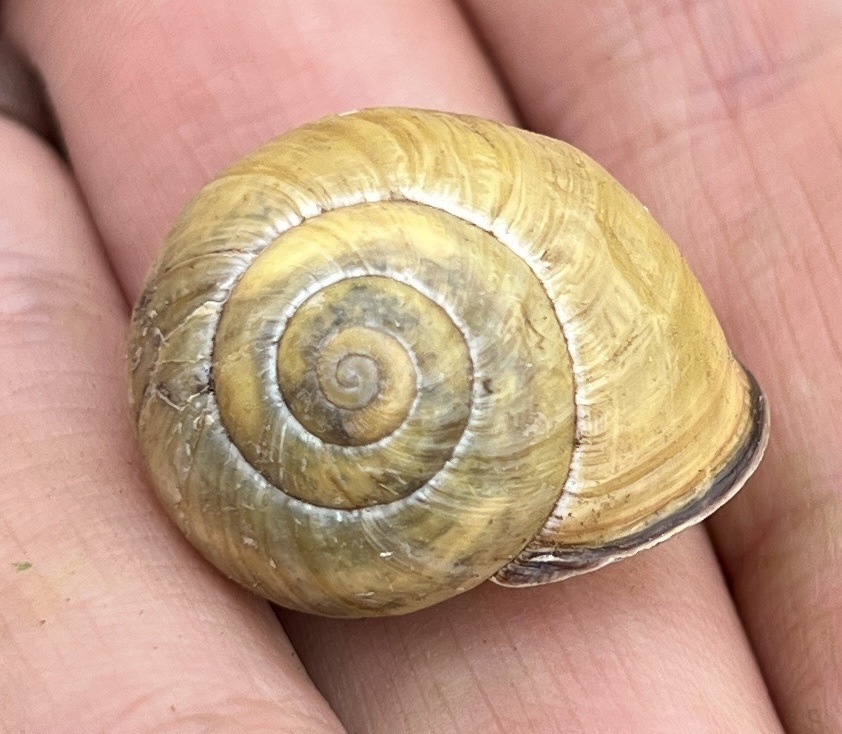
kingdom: Animalia
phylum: Mollusca
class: Gastropoda
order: Stylommatophora
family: Helicidae
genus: Cepaea
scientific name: Cepaea nemoralis
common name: Grovesnail
